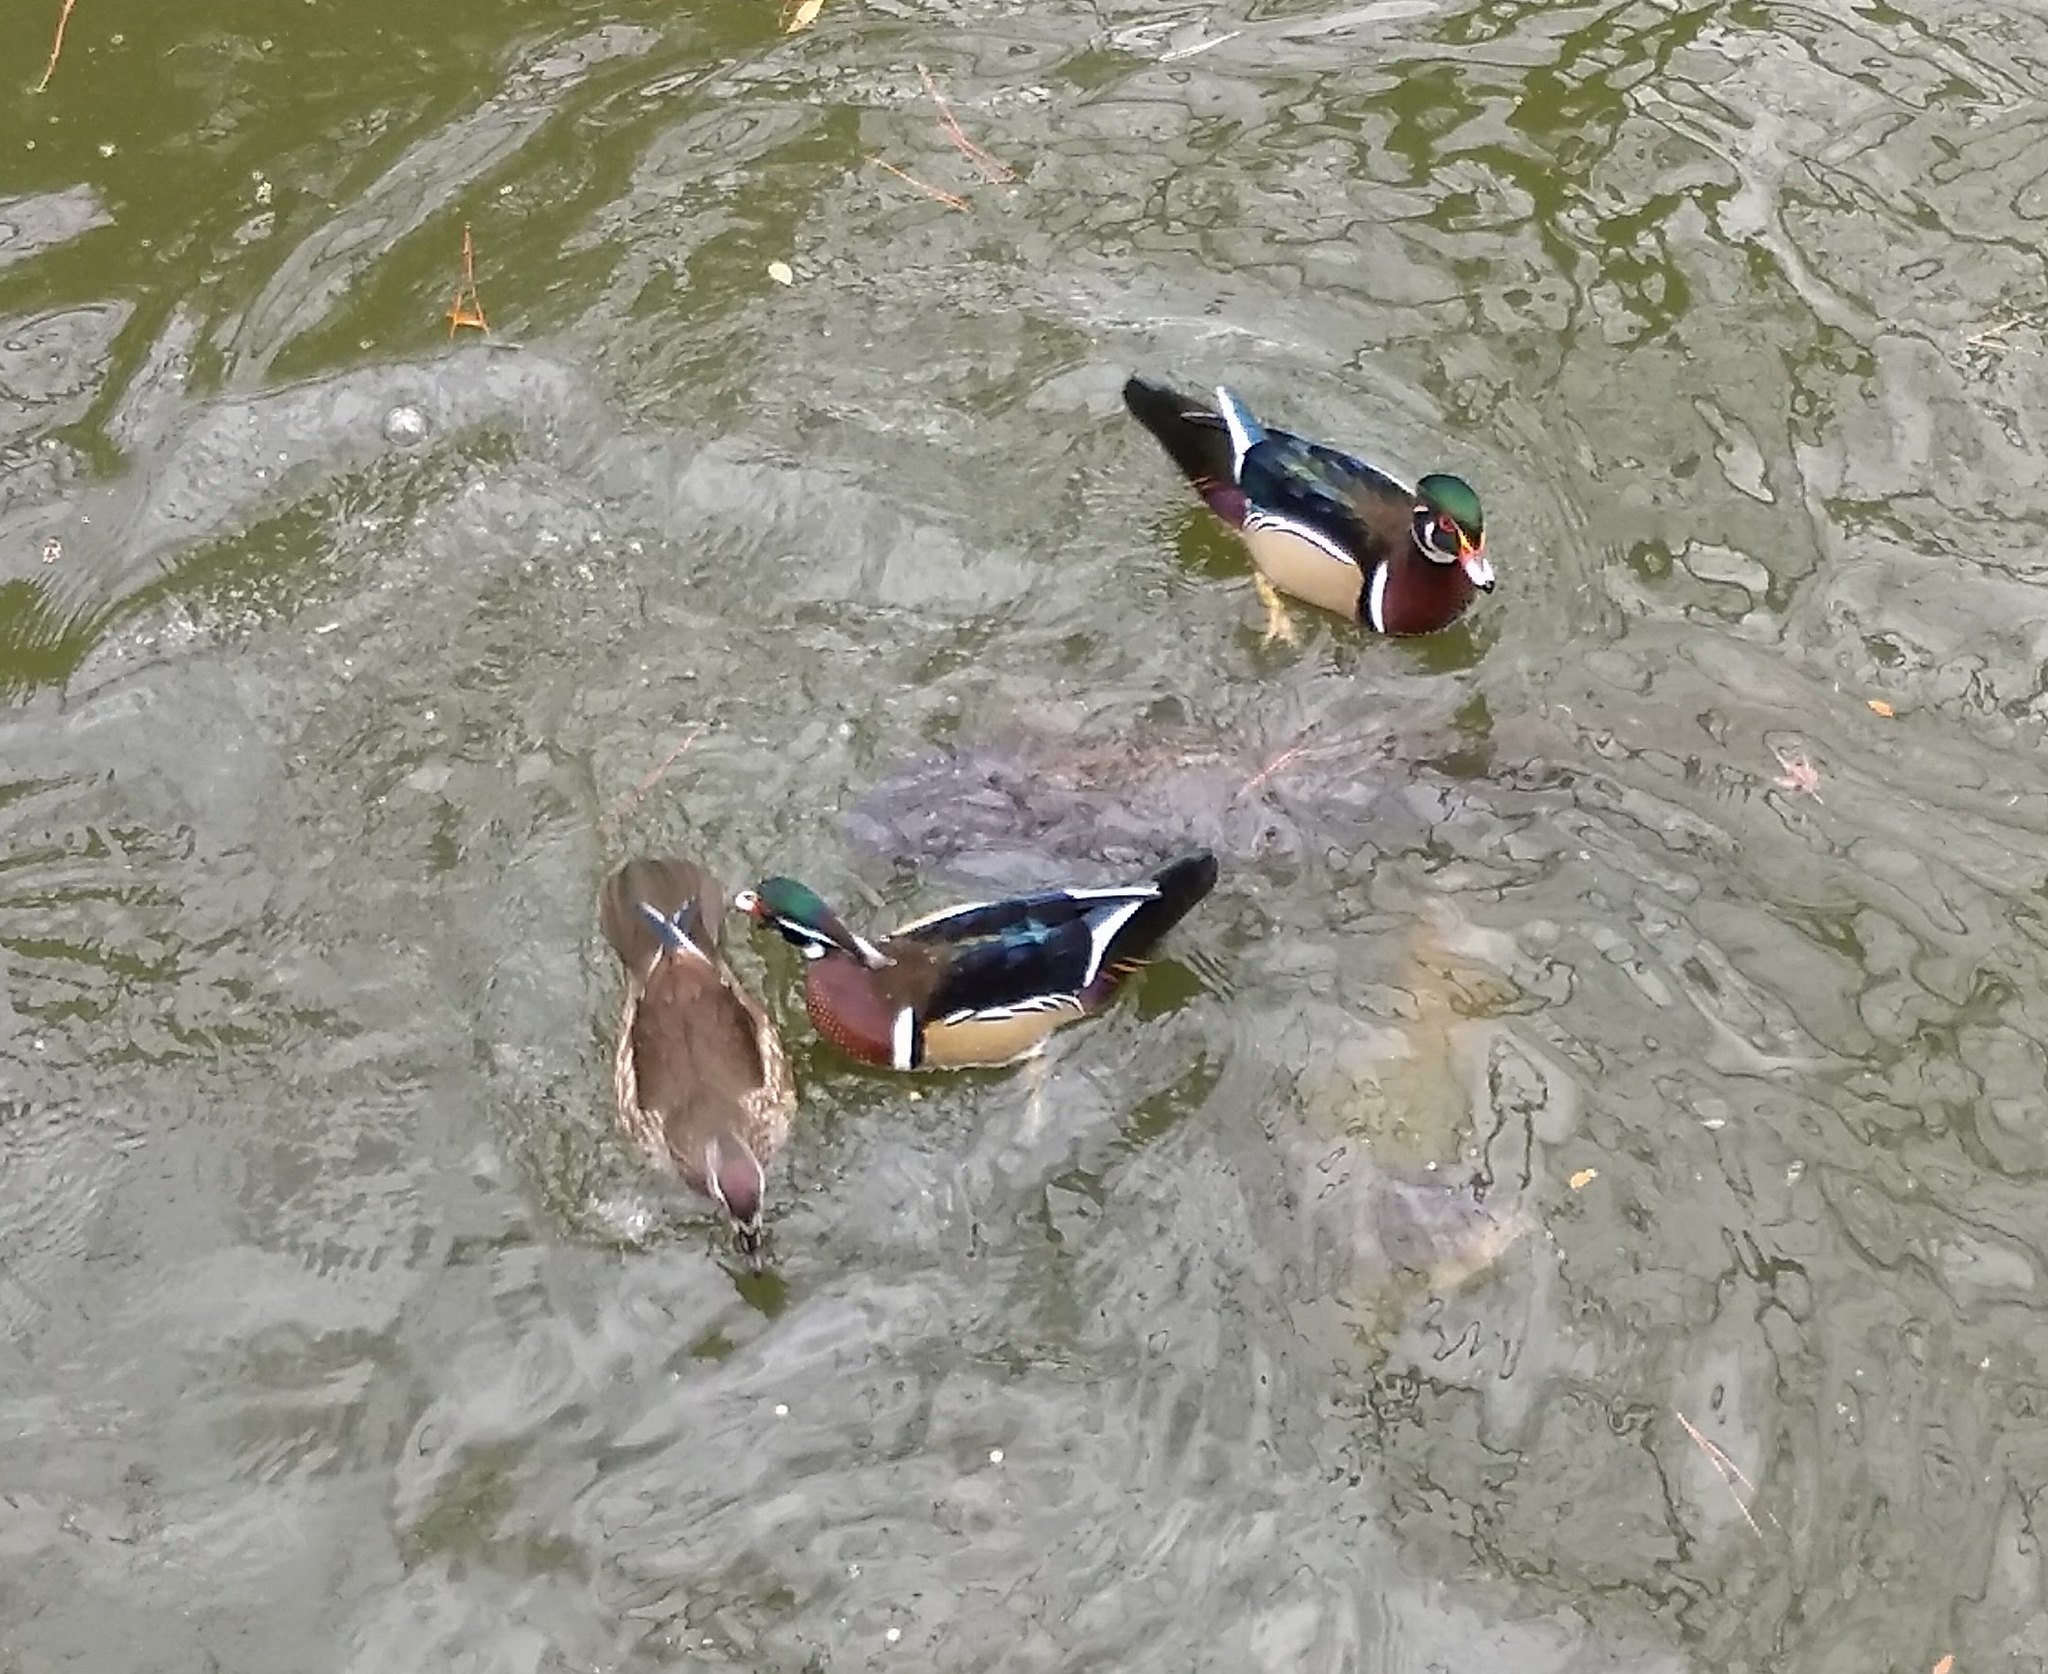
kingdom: Animalia
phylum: Chordata
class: Aves
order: Anseriformes
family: Anatidae
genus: Aix
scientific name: Aix sponsa
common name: Wood duck
